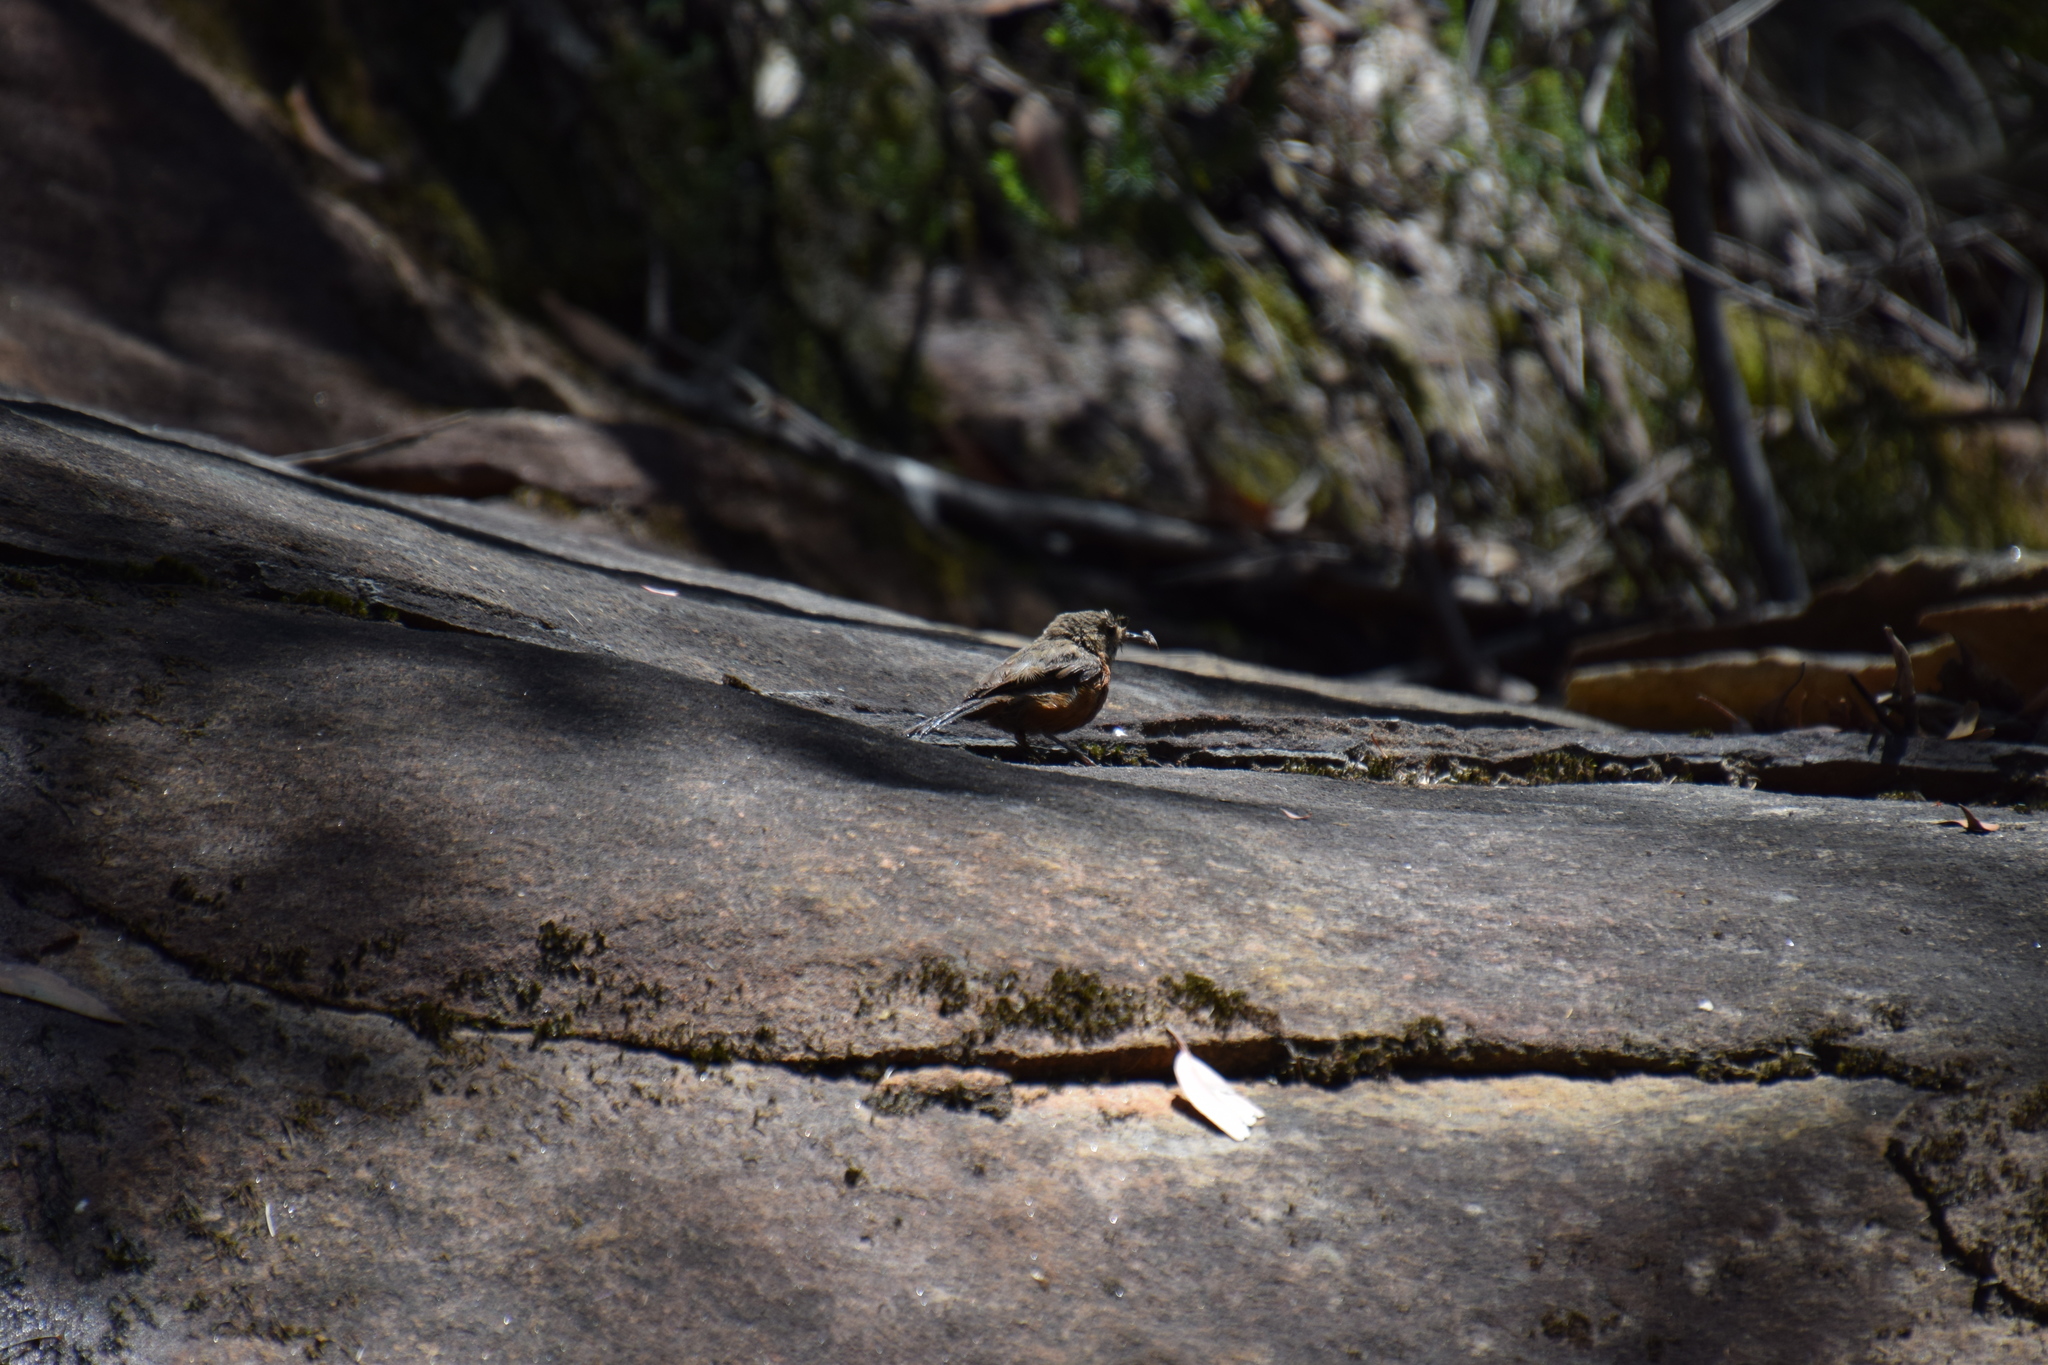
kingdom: Animalia
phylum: Chordata
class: Aves
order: Passeriformes
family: Acanthizidae
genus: Origma
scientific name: Origma solitaria
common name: Rockwarbler
